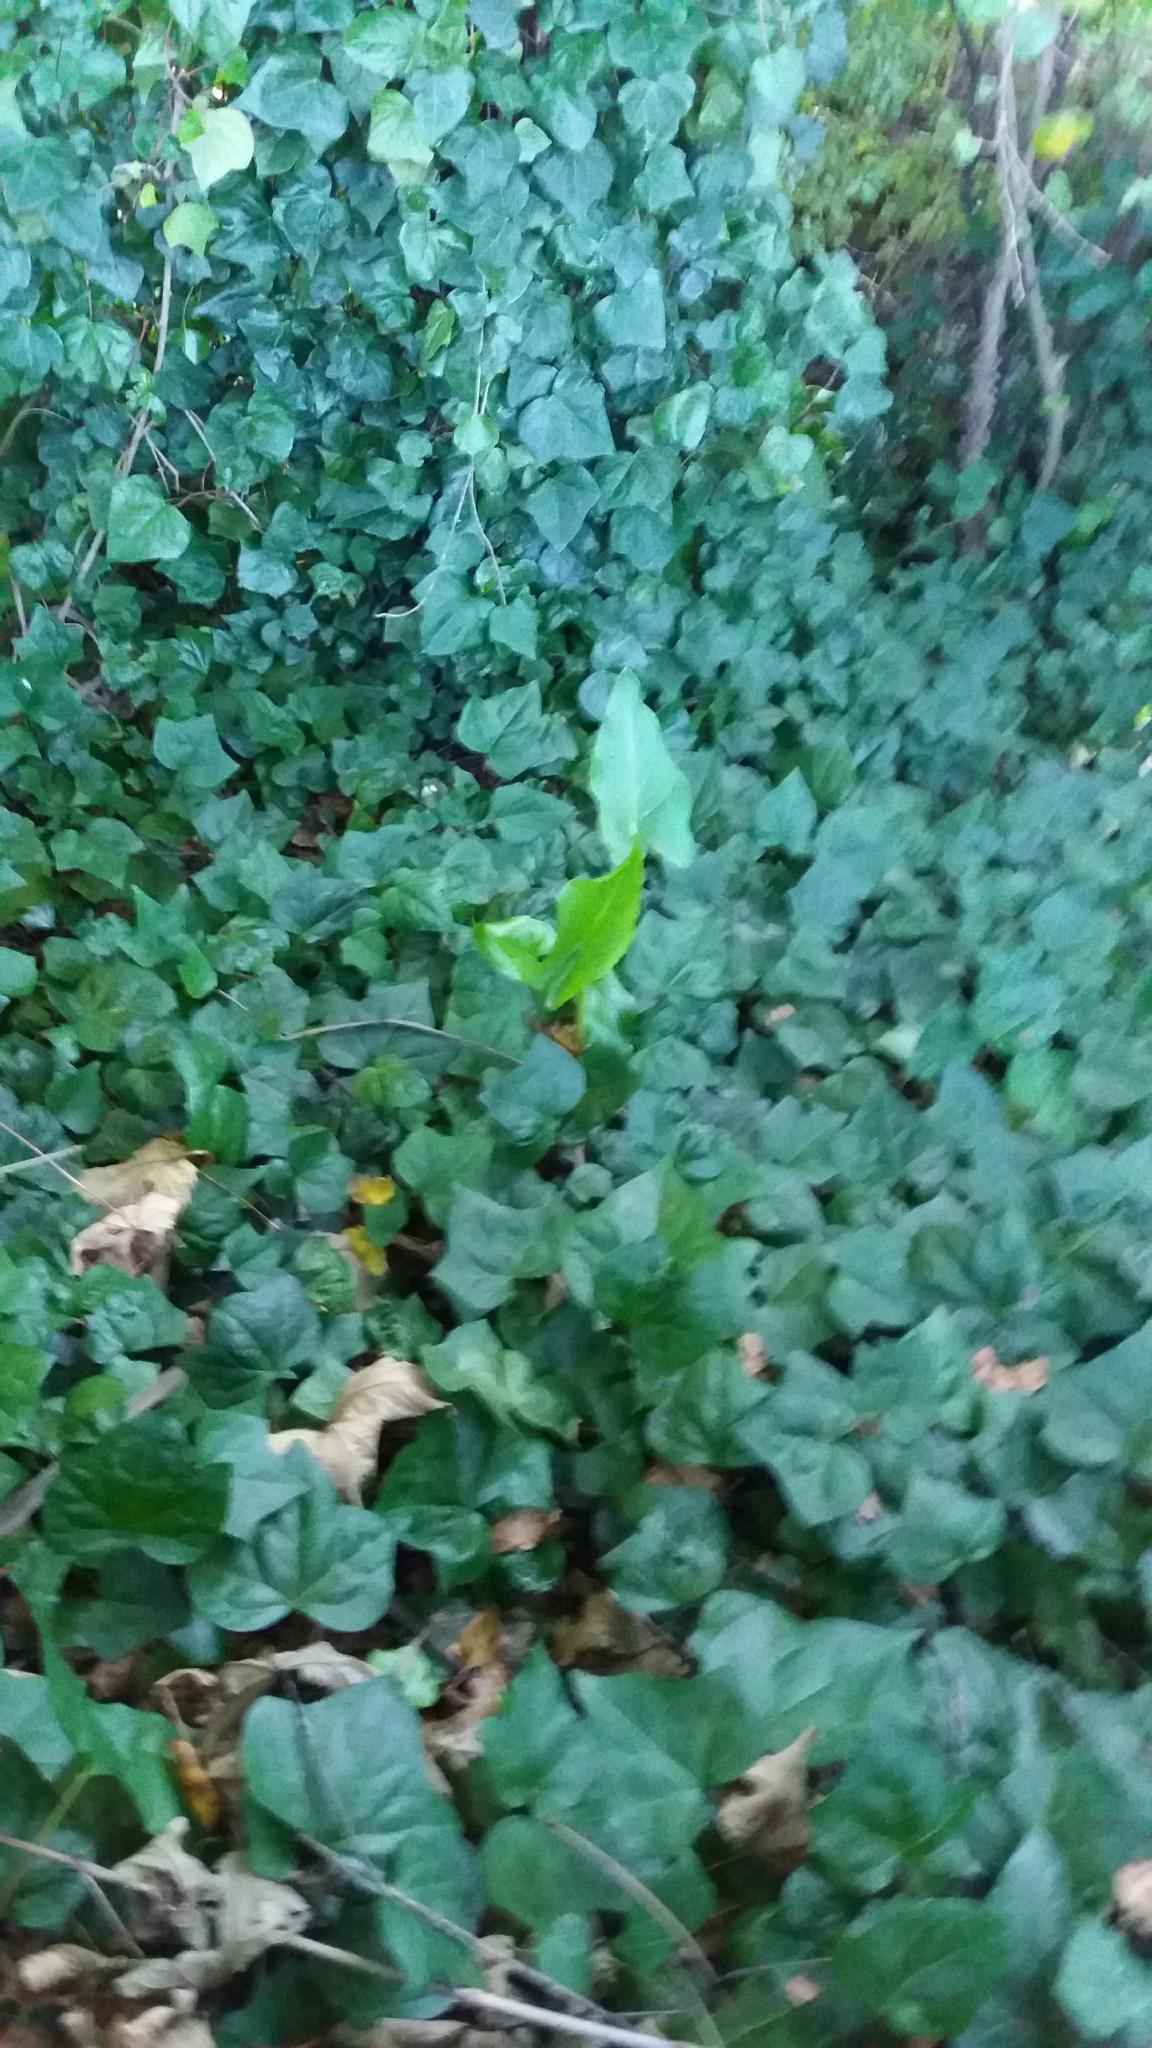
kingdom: Plantae
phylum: Tracheophyta
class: Magnoliopsida
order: Apiales
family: Araliaceae
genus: Hedera
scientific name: Hedera helix
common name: Ivy
